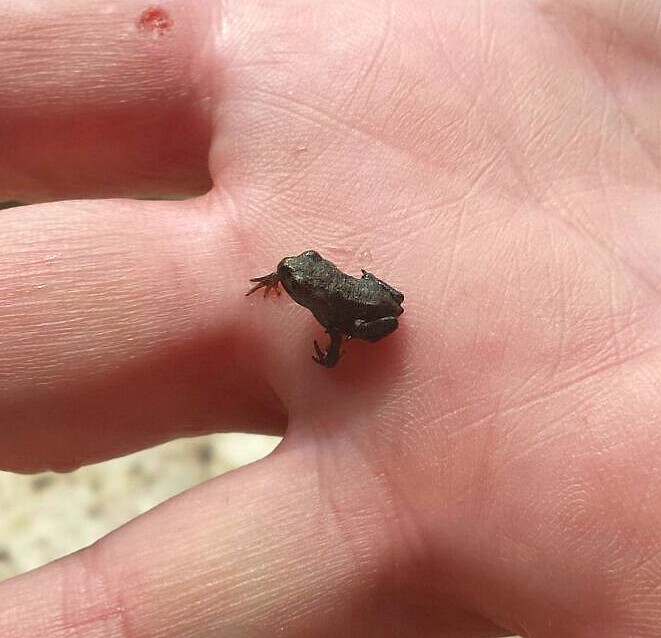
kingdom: Animalia
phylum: Chordata
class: Amphibia
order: Anura
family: Bufonidae
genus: Bufo
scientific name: Bufo spinosus
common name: Western common toad
